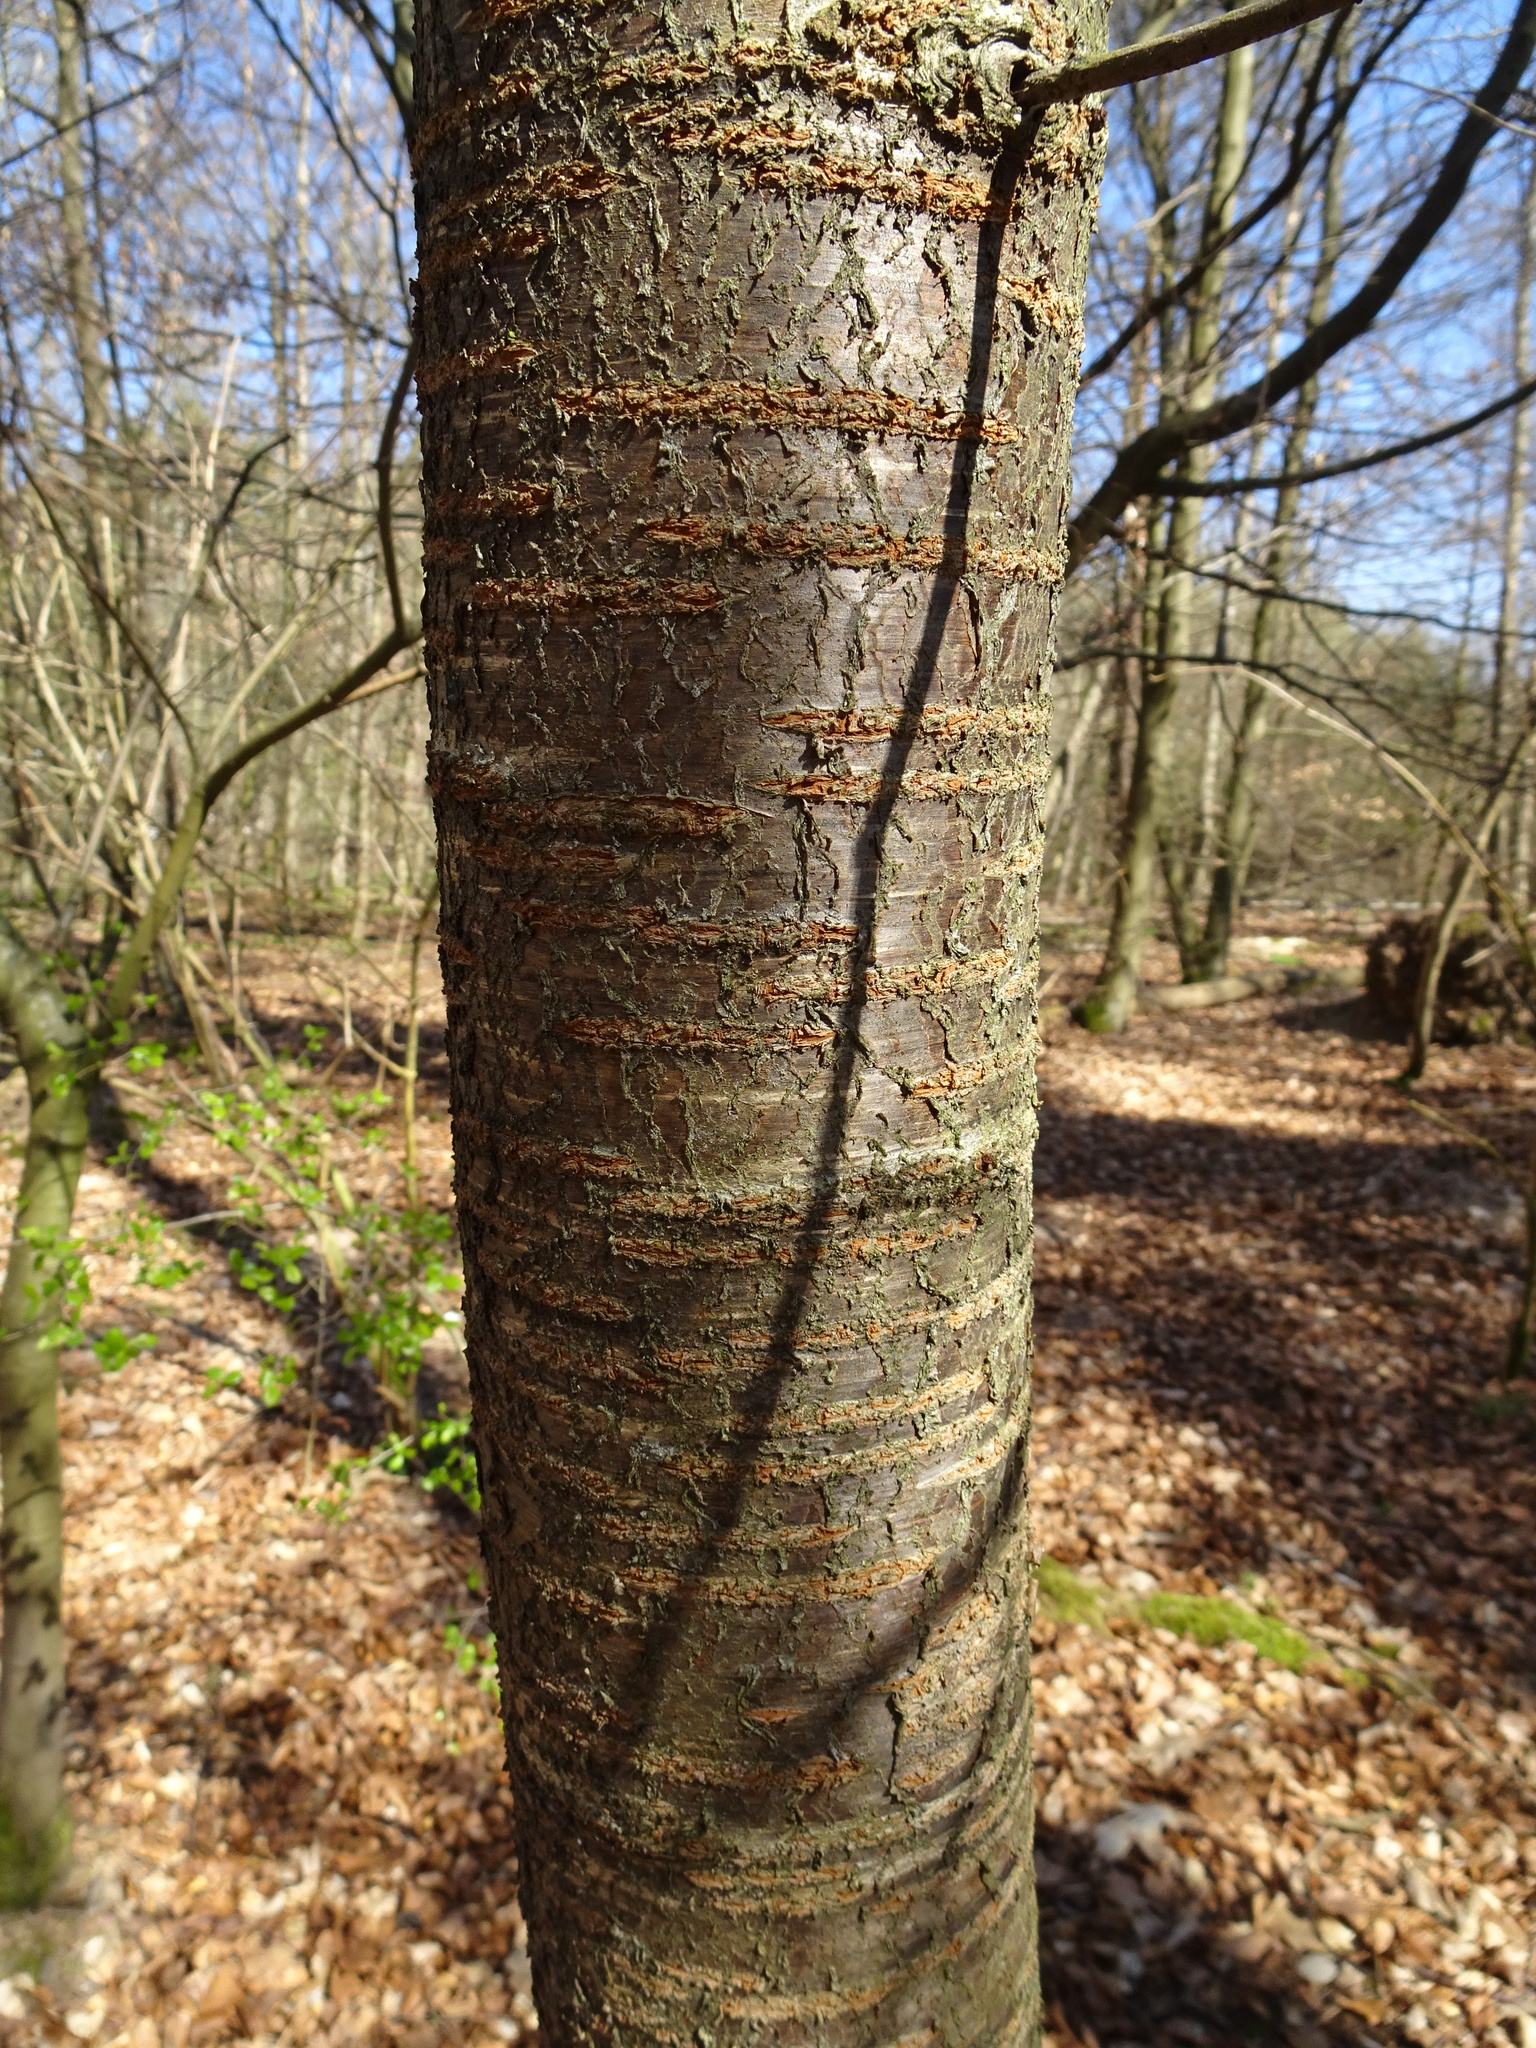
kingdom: Plantae
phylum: Tracheophyta
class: Magnoliopsida
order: Rosales
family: Rosaceae
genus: Prunus
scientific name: Prunus avium
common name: Sweet cherry
